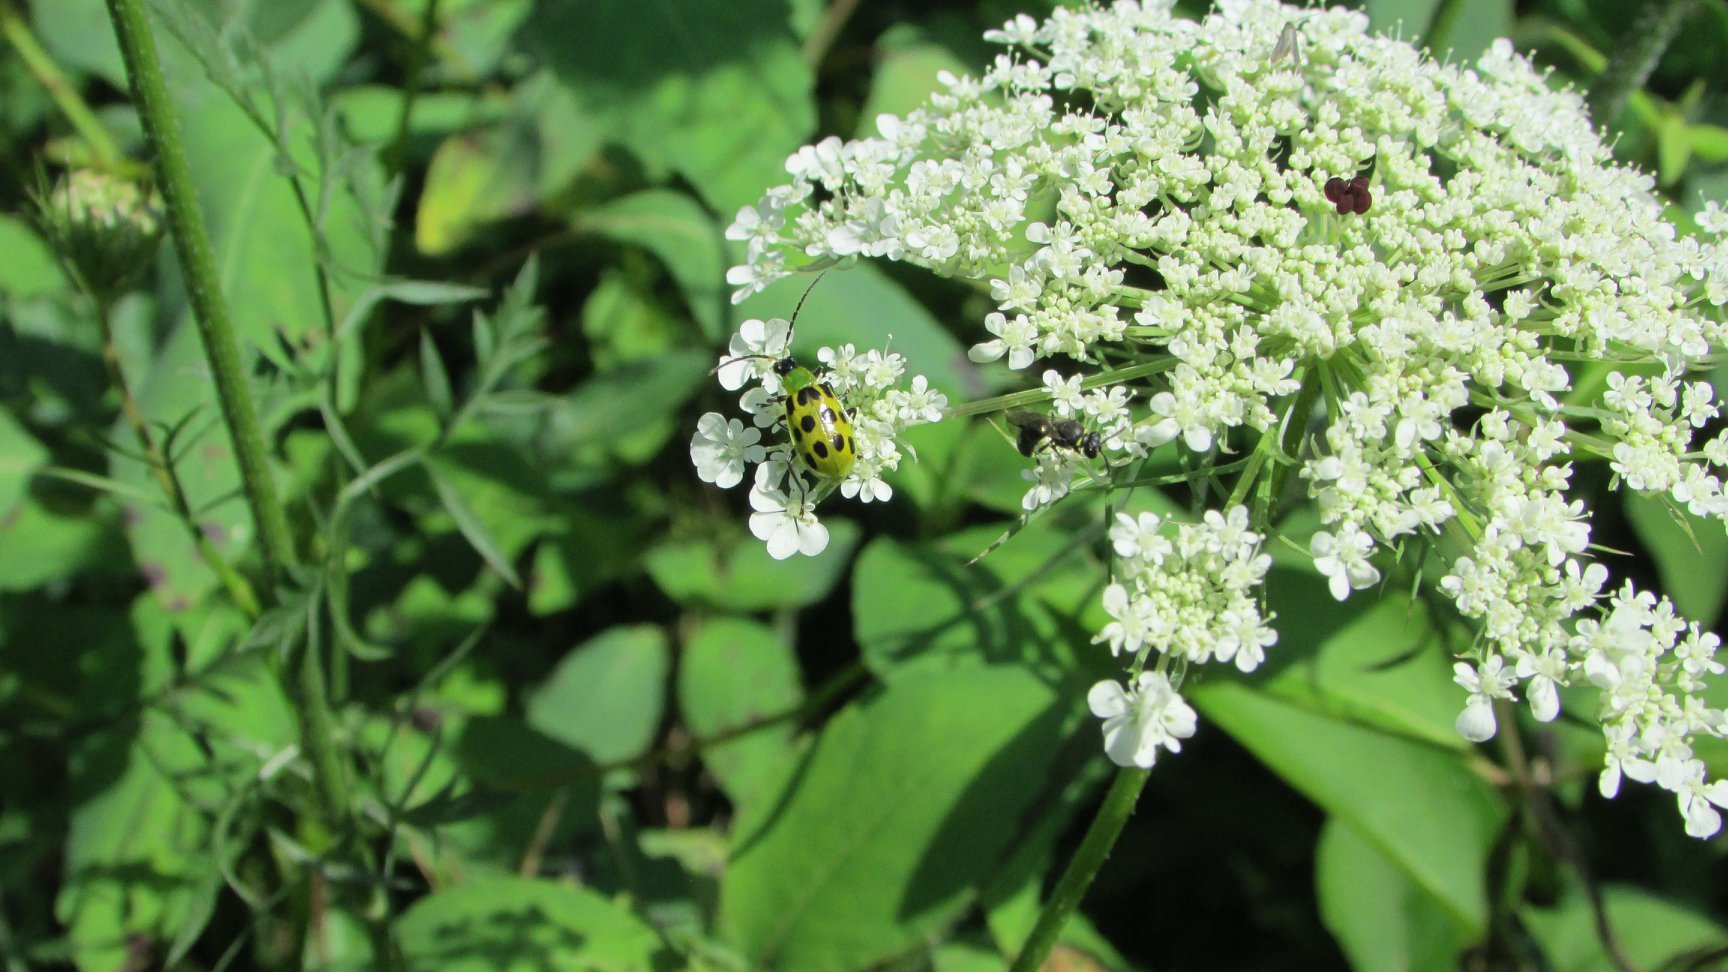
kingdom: Animalia
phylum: Arthropoda
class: Insecta
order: Coleoptera
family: Chrysomelidae
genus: Diabrotica
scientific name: Diabrotica undecimpunctata
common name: Spotted cucumber beetle
